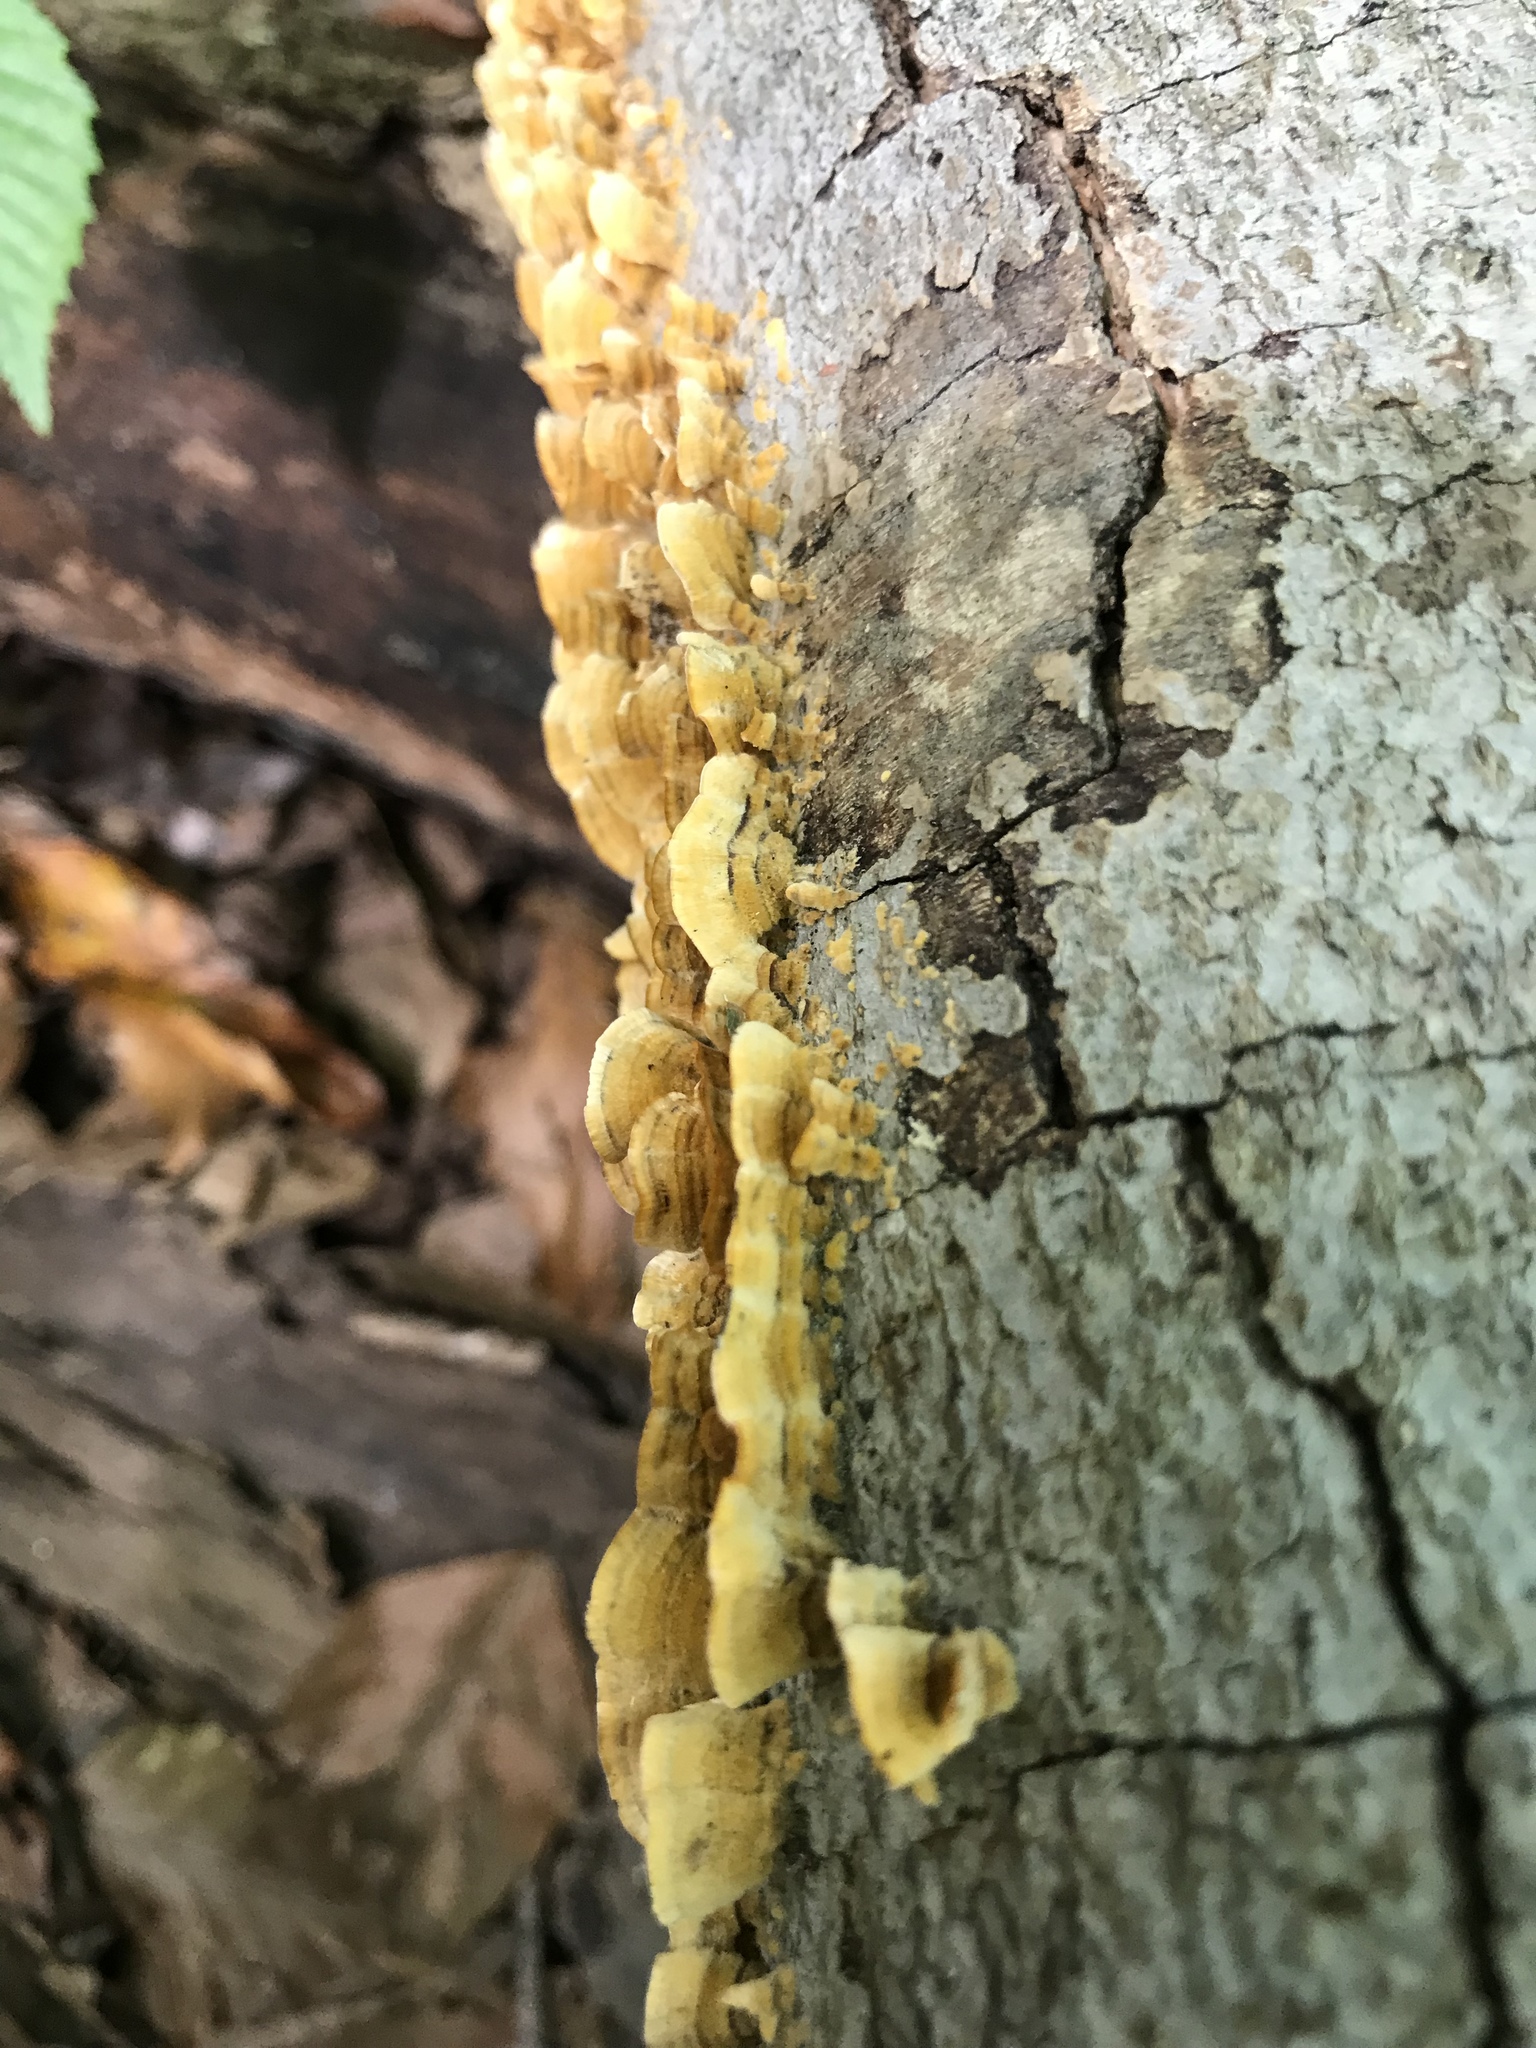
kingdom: Fungi
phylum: Basidiomycota
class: Agaricomycetes
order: Russulales
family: Stereaceae
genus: Stereum
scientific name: Stereum complicatum
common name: Crowded parchment
